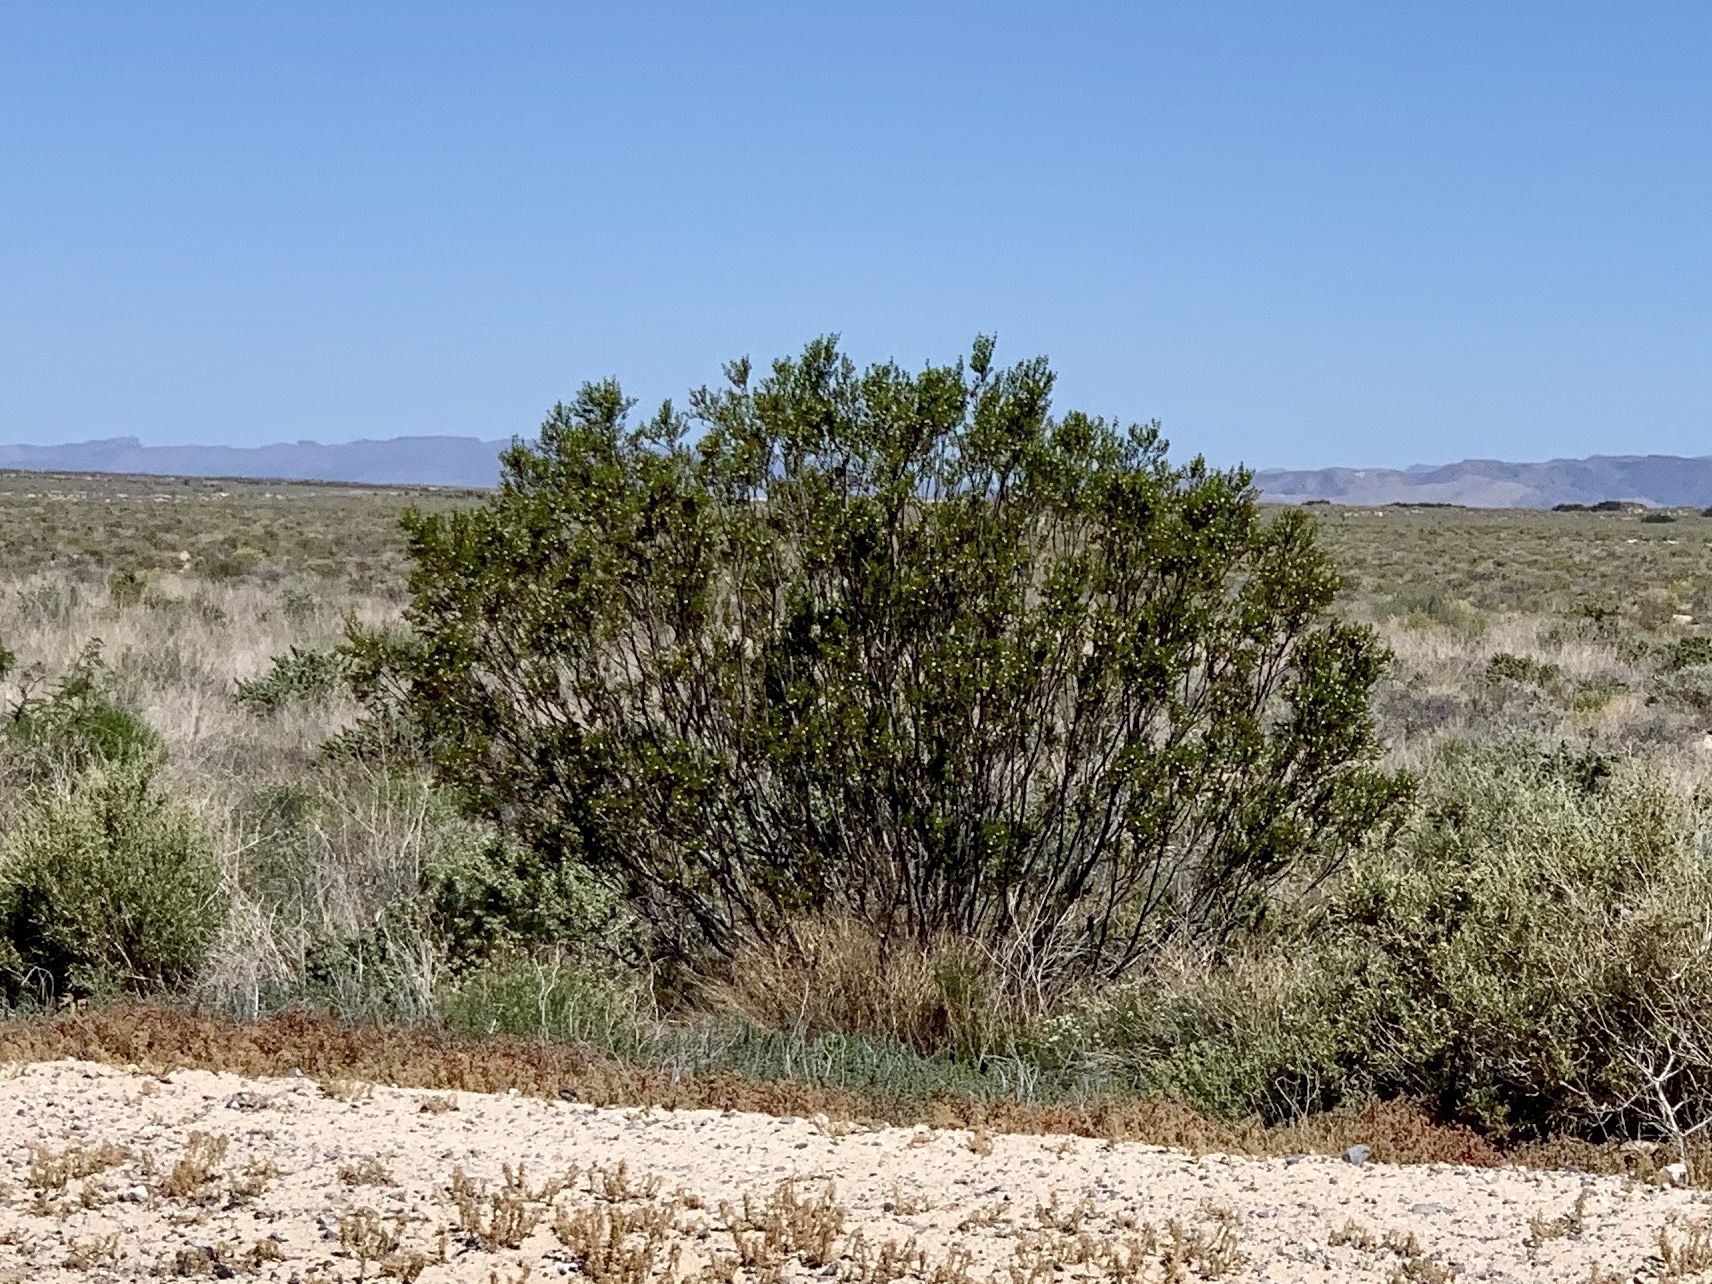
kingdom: Plantae
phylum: Tracheophyta
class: Magnoliopsida
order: Zygophyllales
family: Zygophyllaceae
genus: Larrea
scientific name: Larrea tridentata
